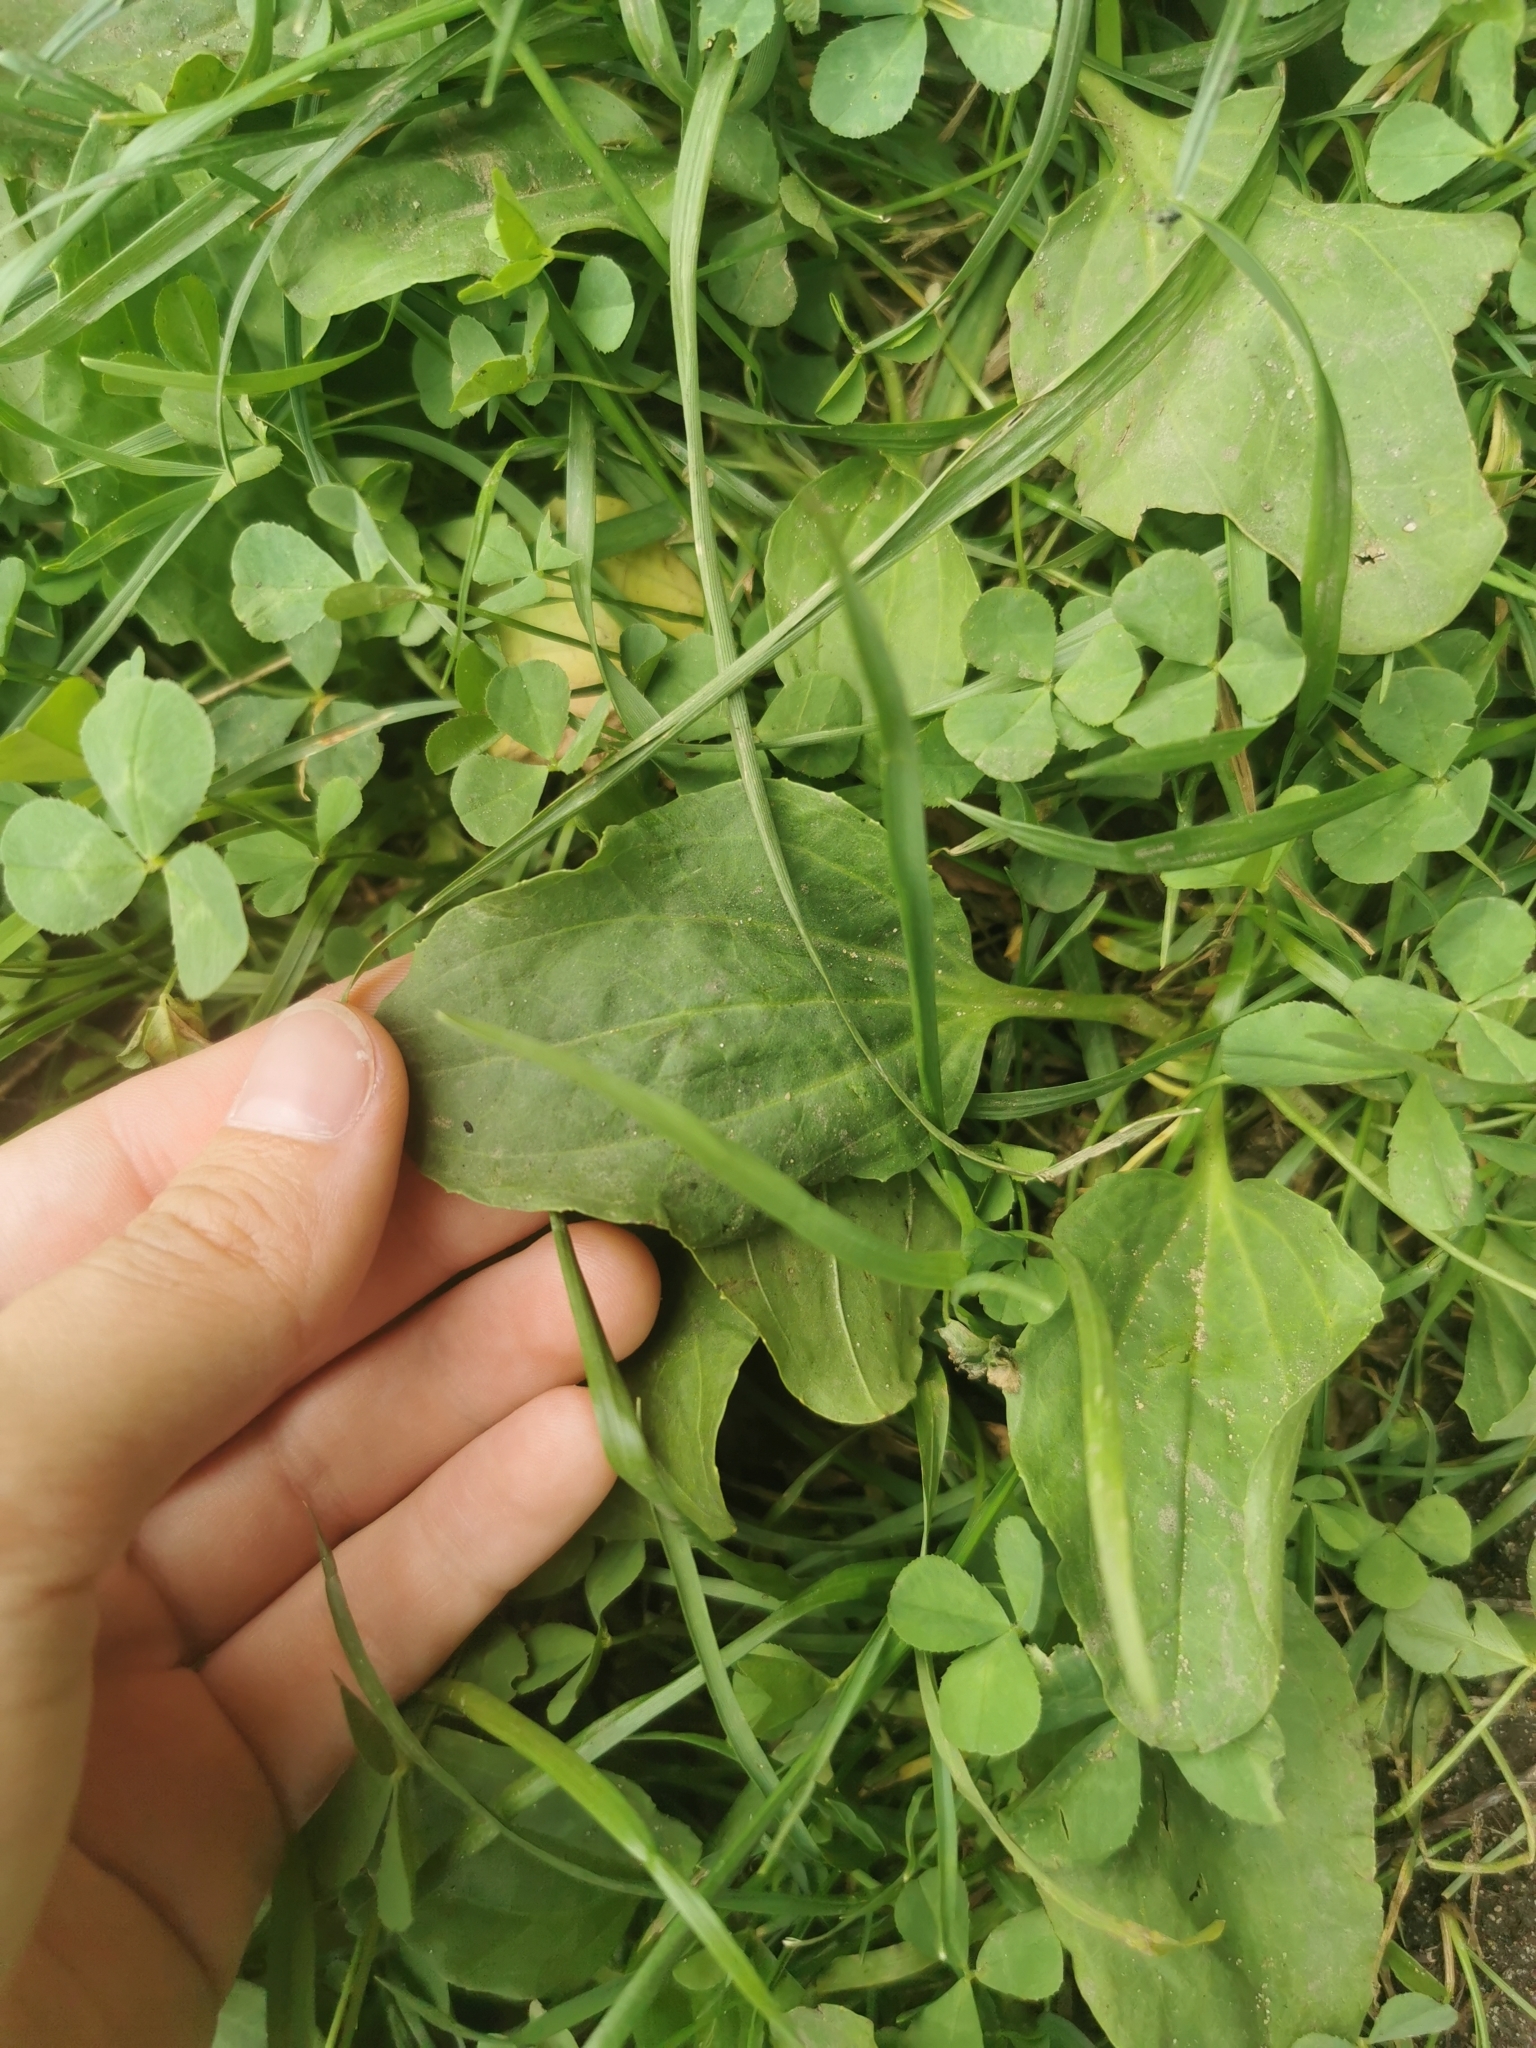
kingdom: Plantae
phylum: Tracheophyta
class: Magnoliopsida
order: Lamiales
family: Plantaginaceae
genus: Plantago
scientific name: Plantago major
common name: Common plantain
